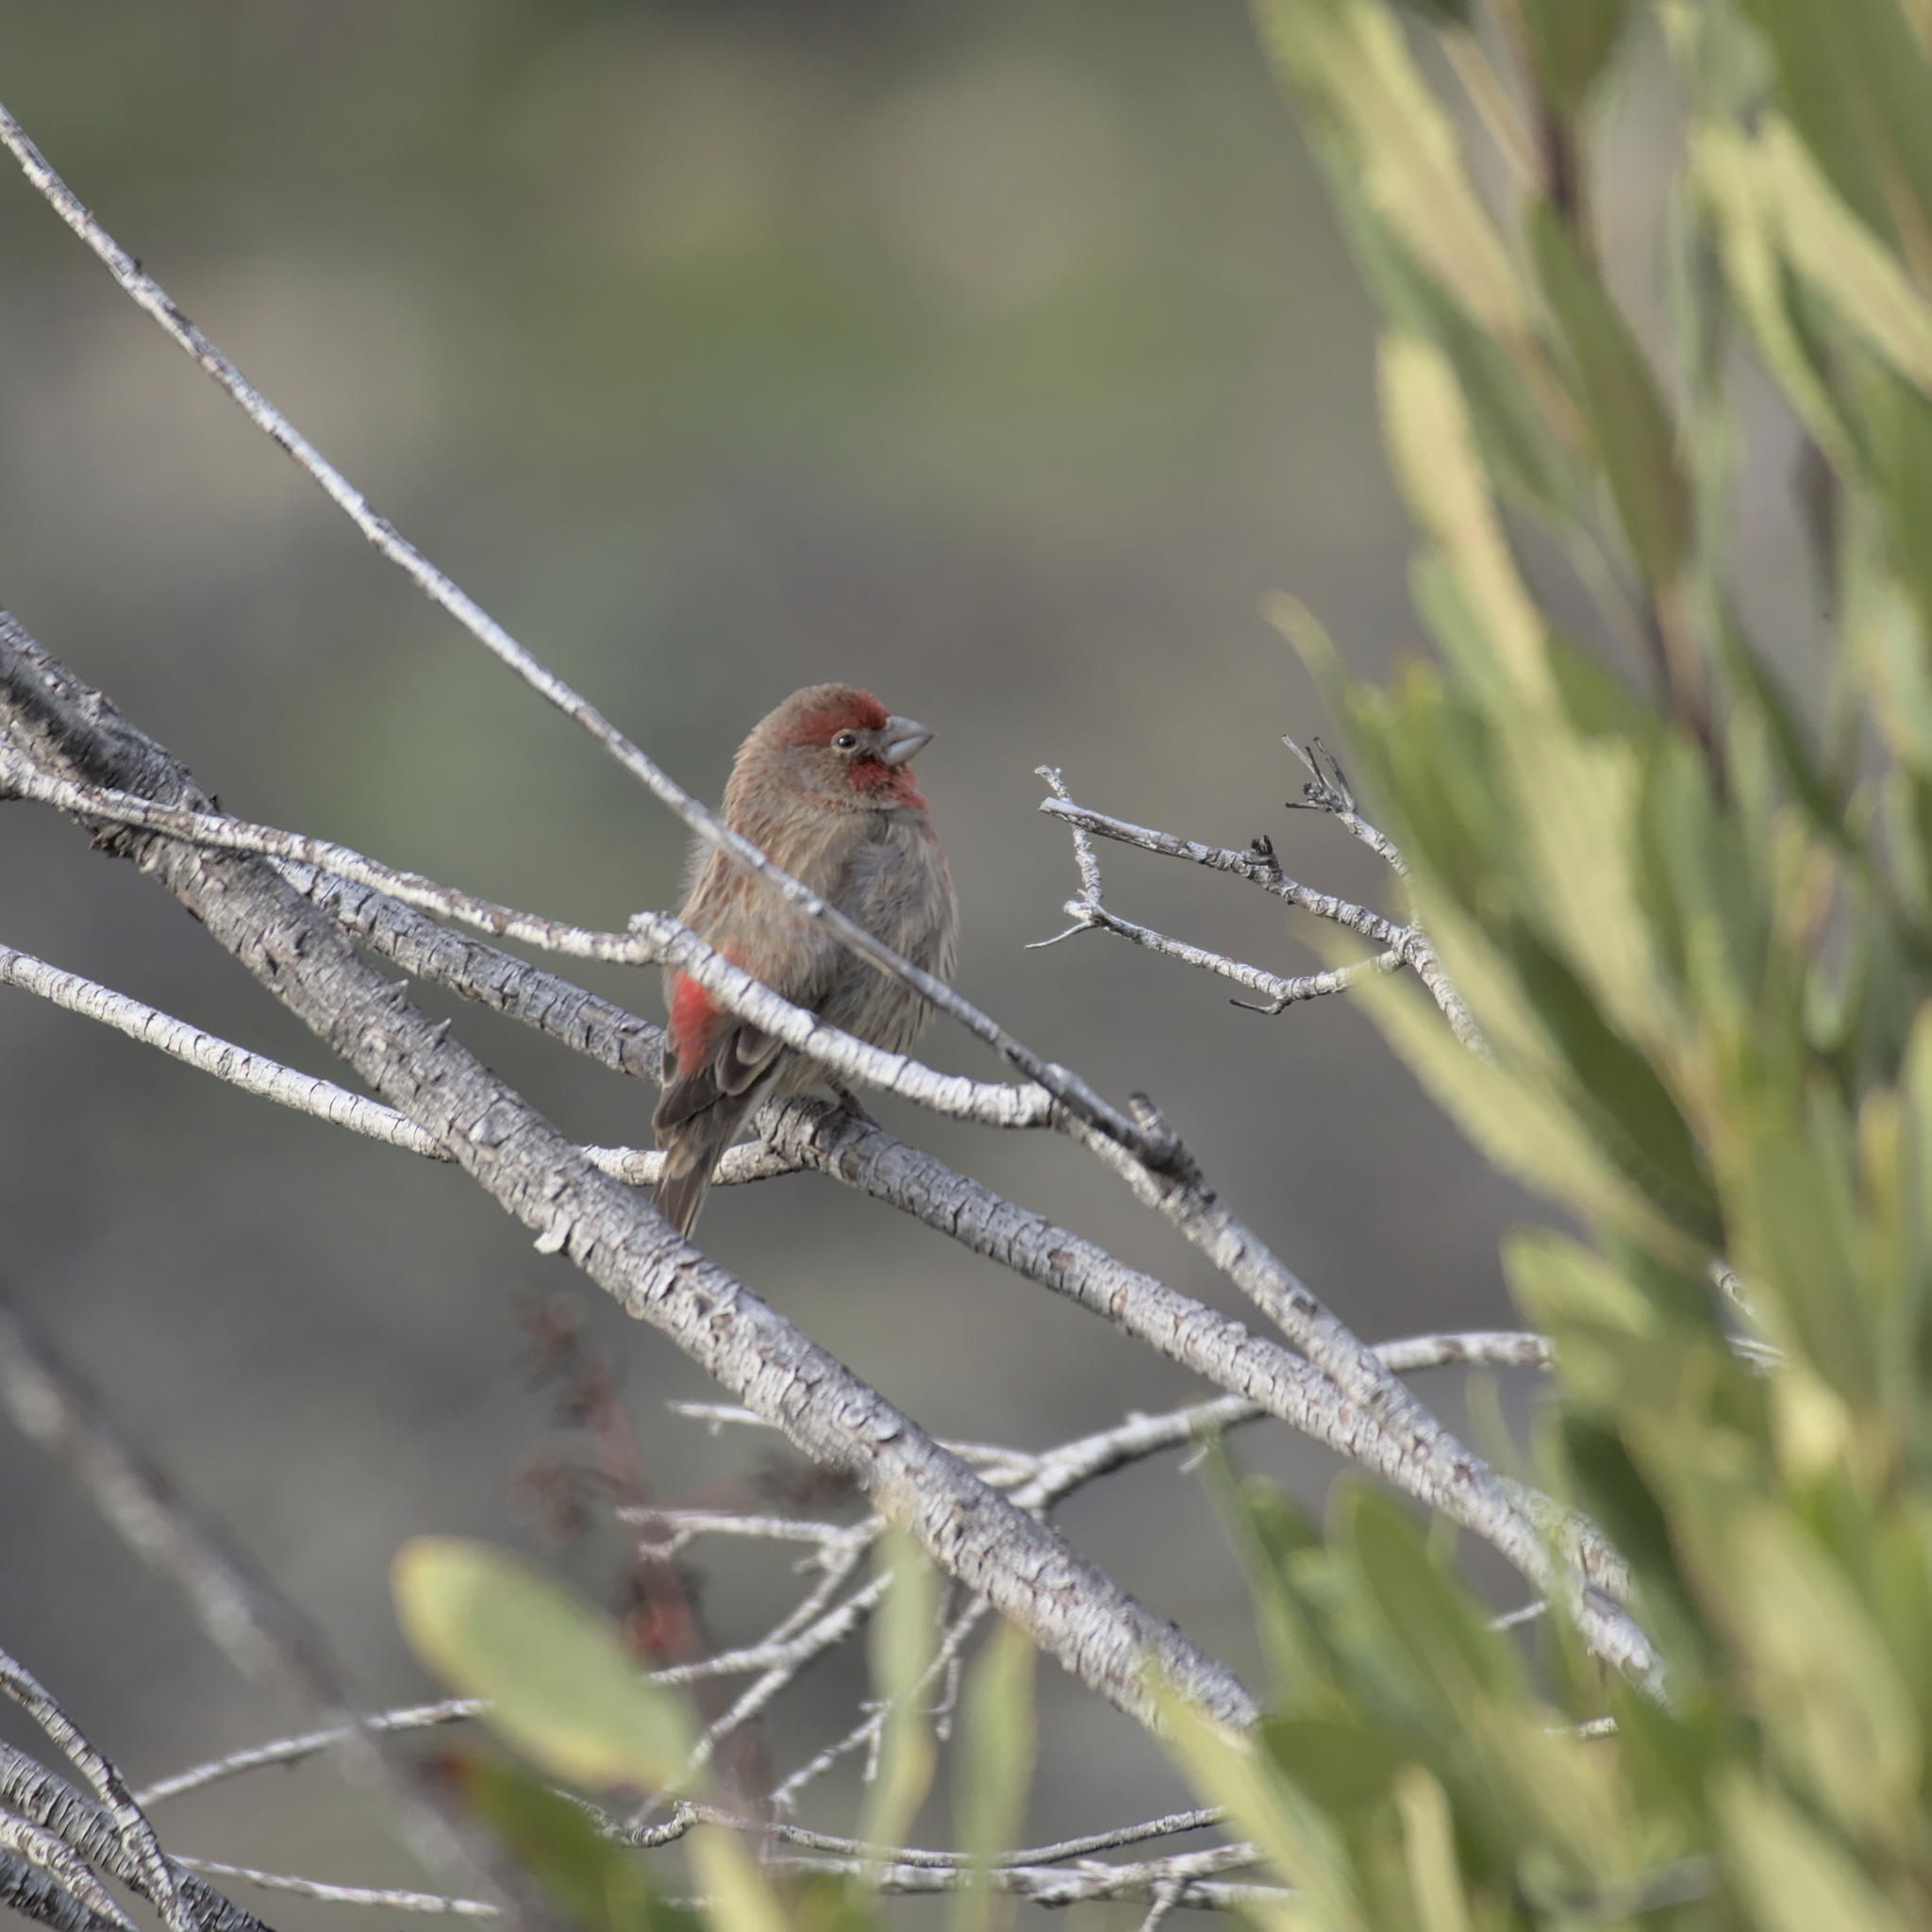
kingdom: Animalia
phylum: Chordata
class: Aves
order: Passeriformes
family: Fringillidae
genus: Haemorhous
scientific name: Haemorhous mexicanus
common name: House finch
